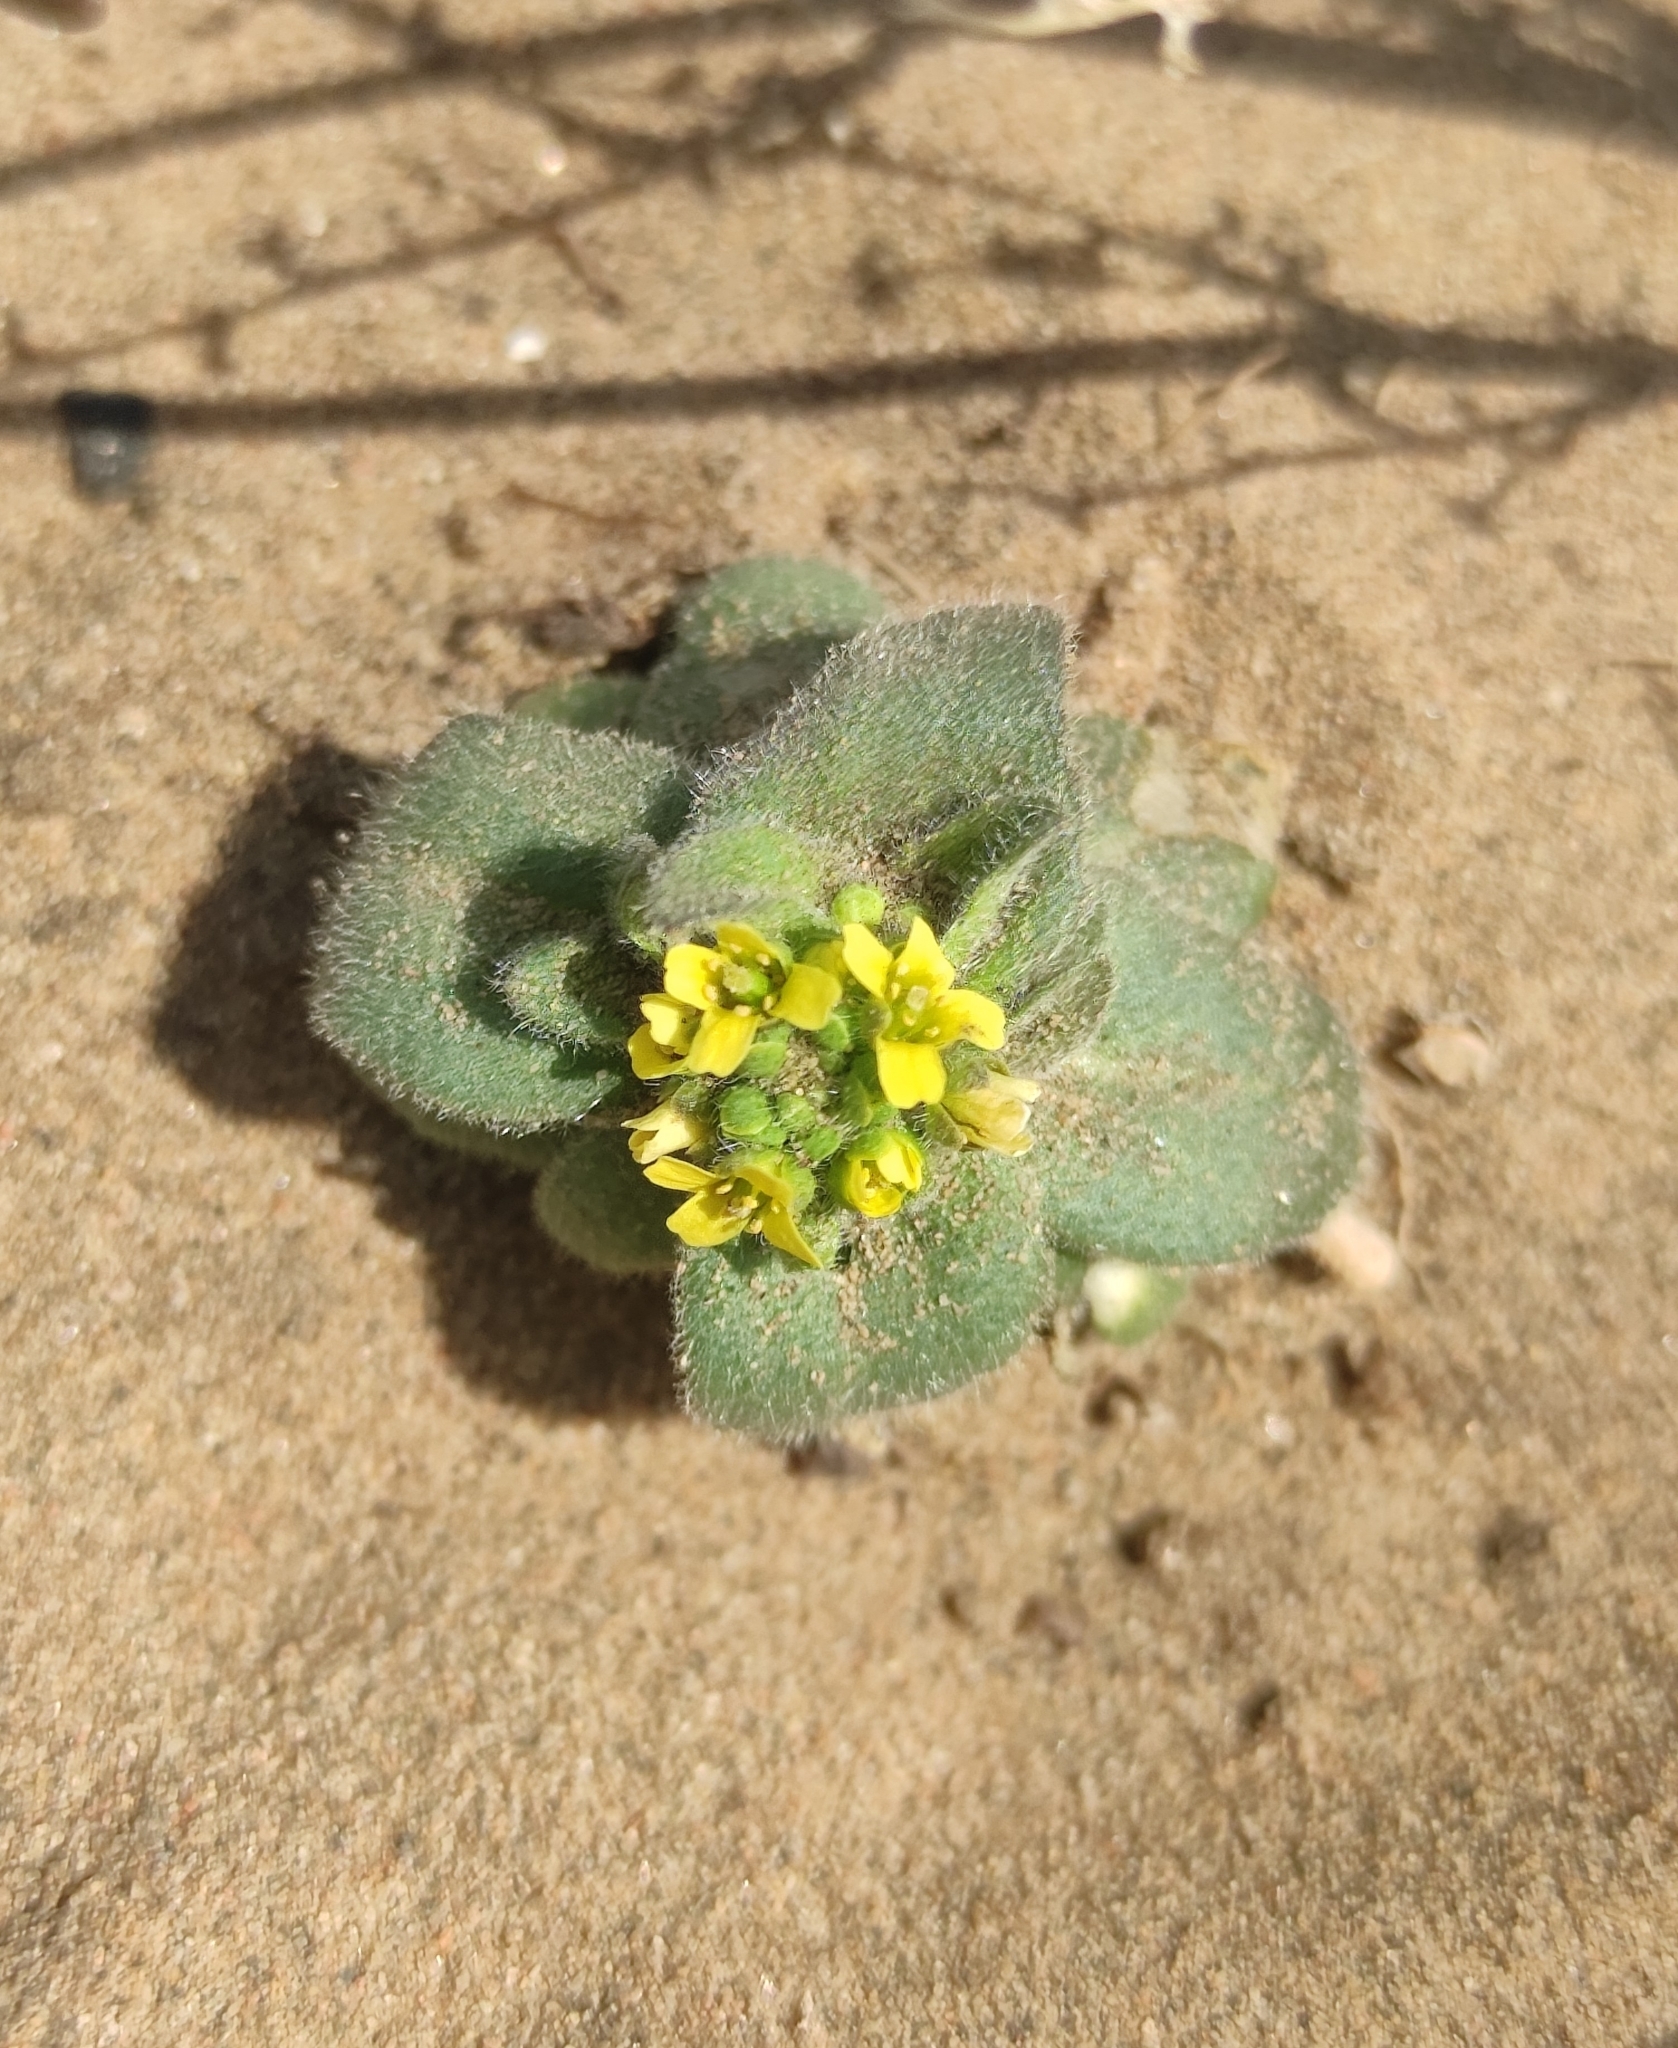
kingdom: Plantae
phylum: Tracheophyta
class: Magnoliopsida
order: Brassicales
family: Brassicaceae
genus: Draba
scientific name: Draba nemorosa
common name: Wood whitlow-grass
